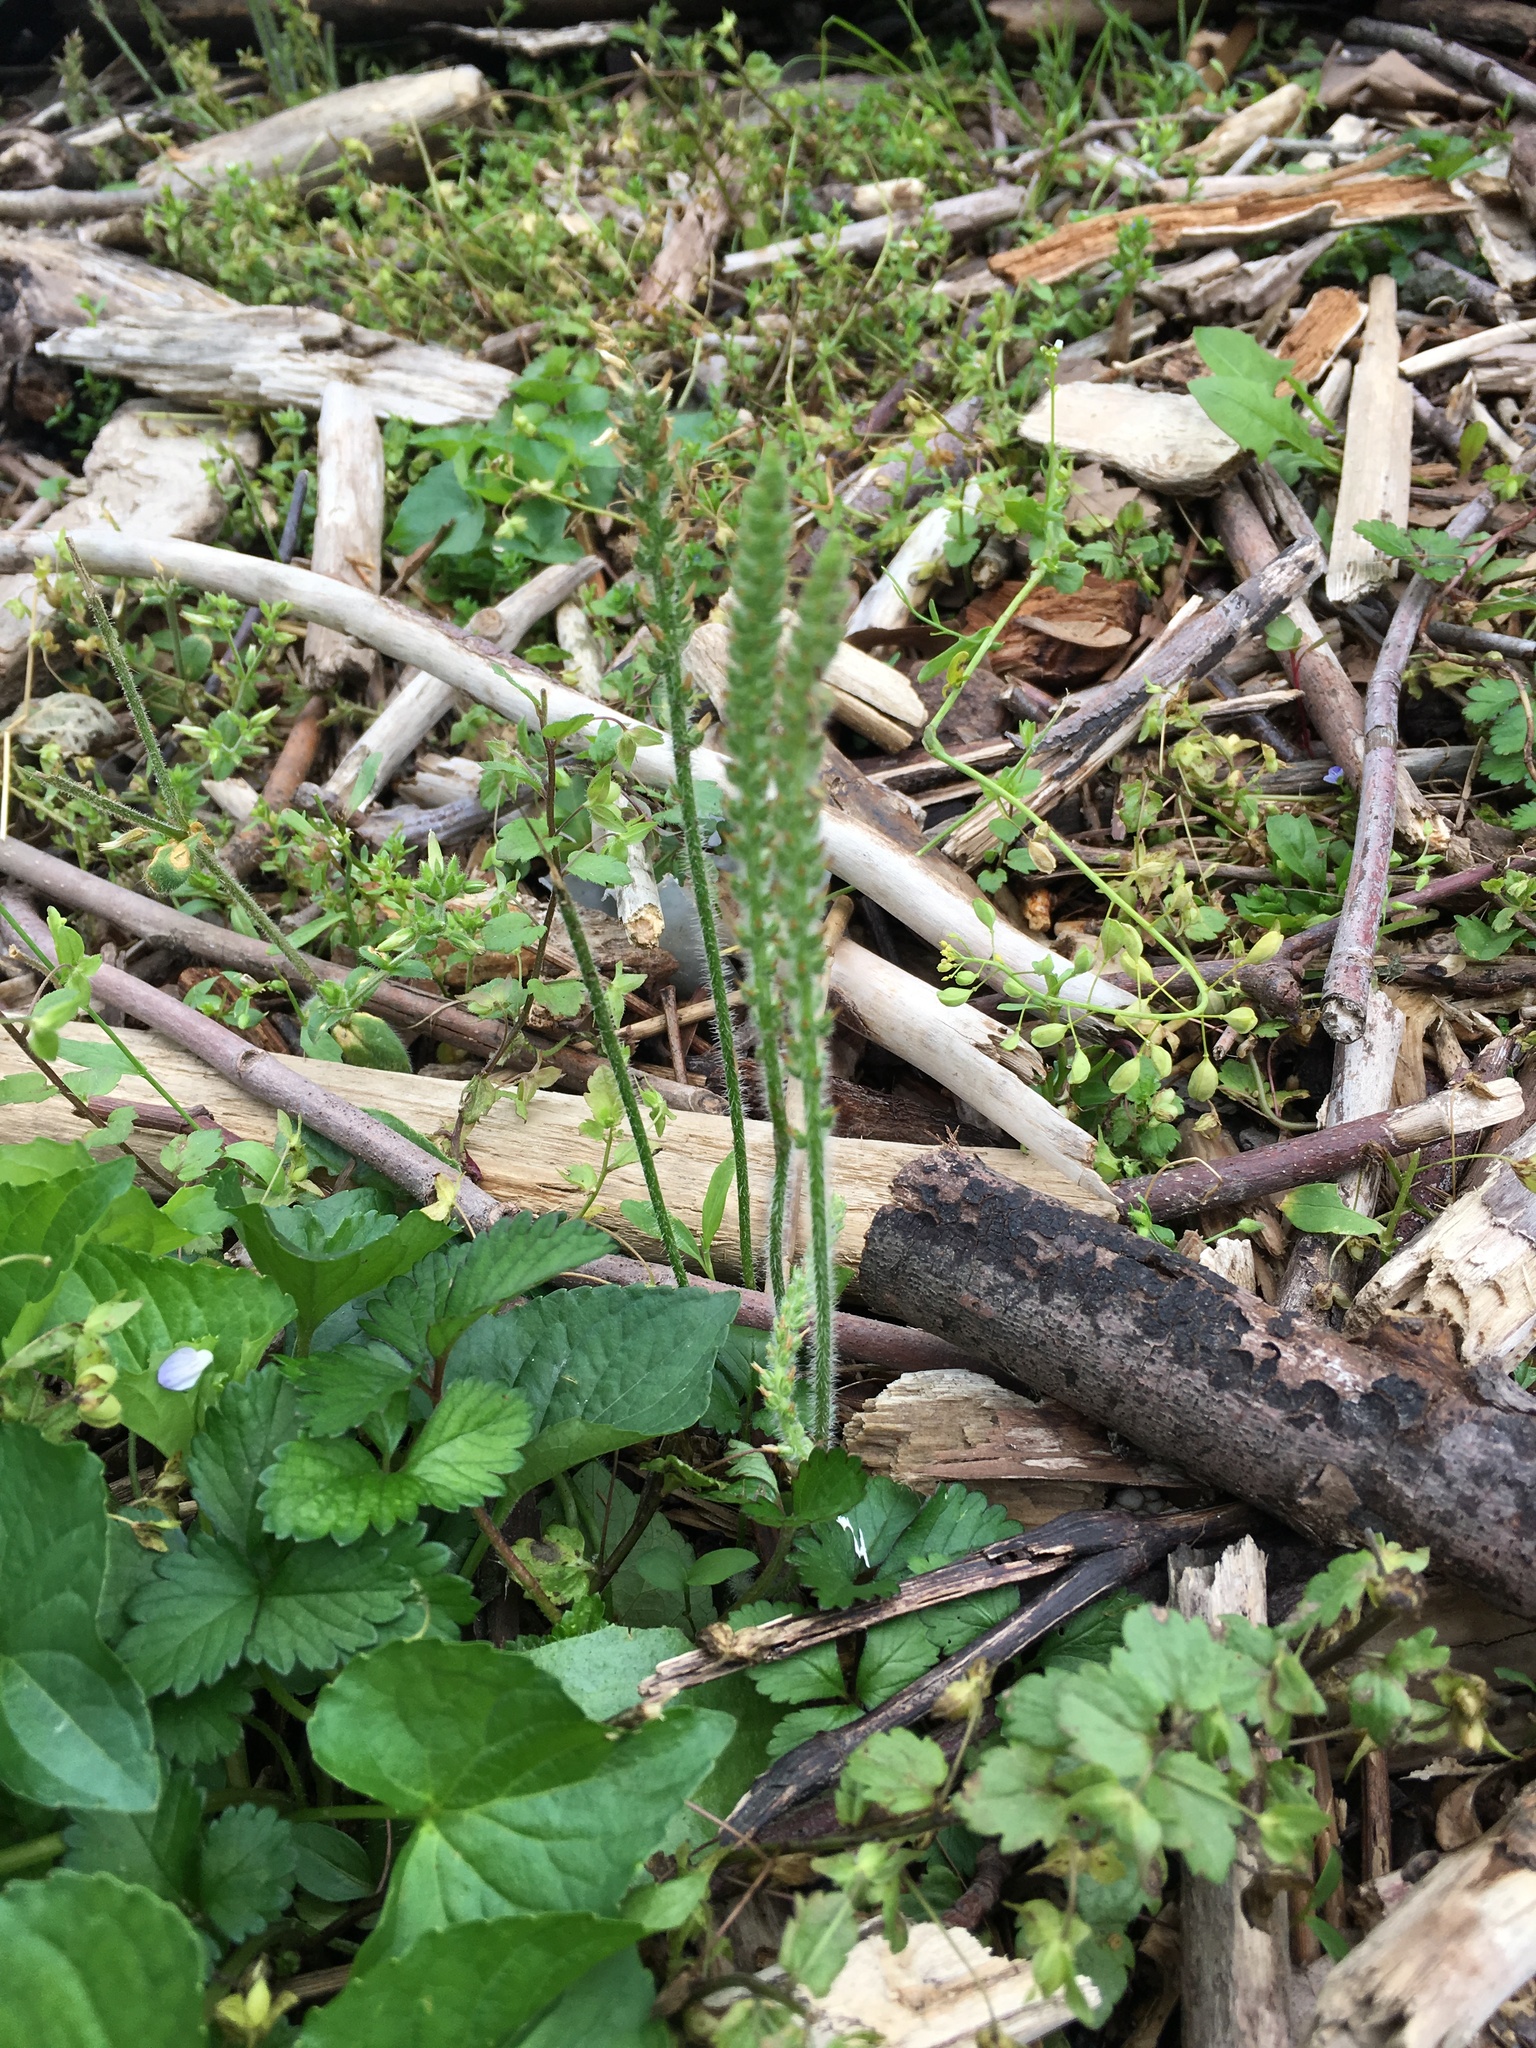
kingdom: Plantae
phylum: Tracheophyta
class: Magnoliopsida
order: Lamiales
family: Plantaginaceae
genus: Plantago
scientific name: Plantago virginica
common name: Hoary plantain
